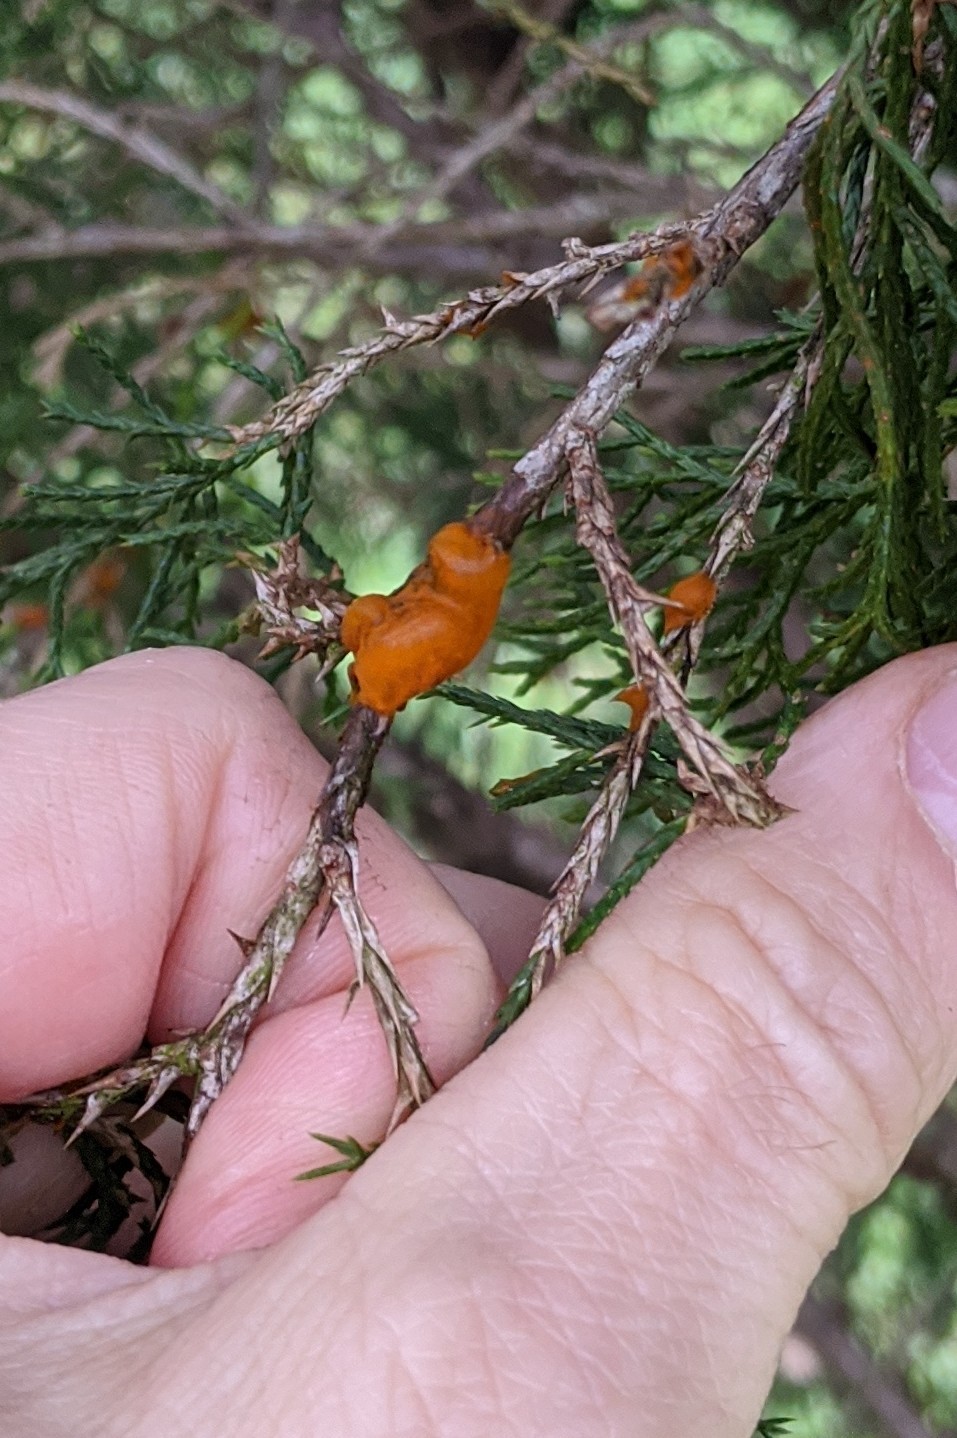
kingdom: Fungi
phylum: Basidiomycota
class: Pucciniomycetes
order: Pucciniales
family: Gymnosporangiaceae
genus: Gymnosporangium
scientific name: Gymnosporangium clavipes
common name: Quince rust
